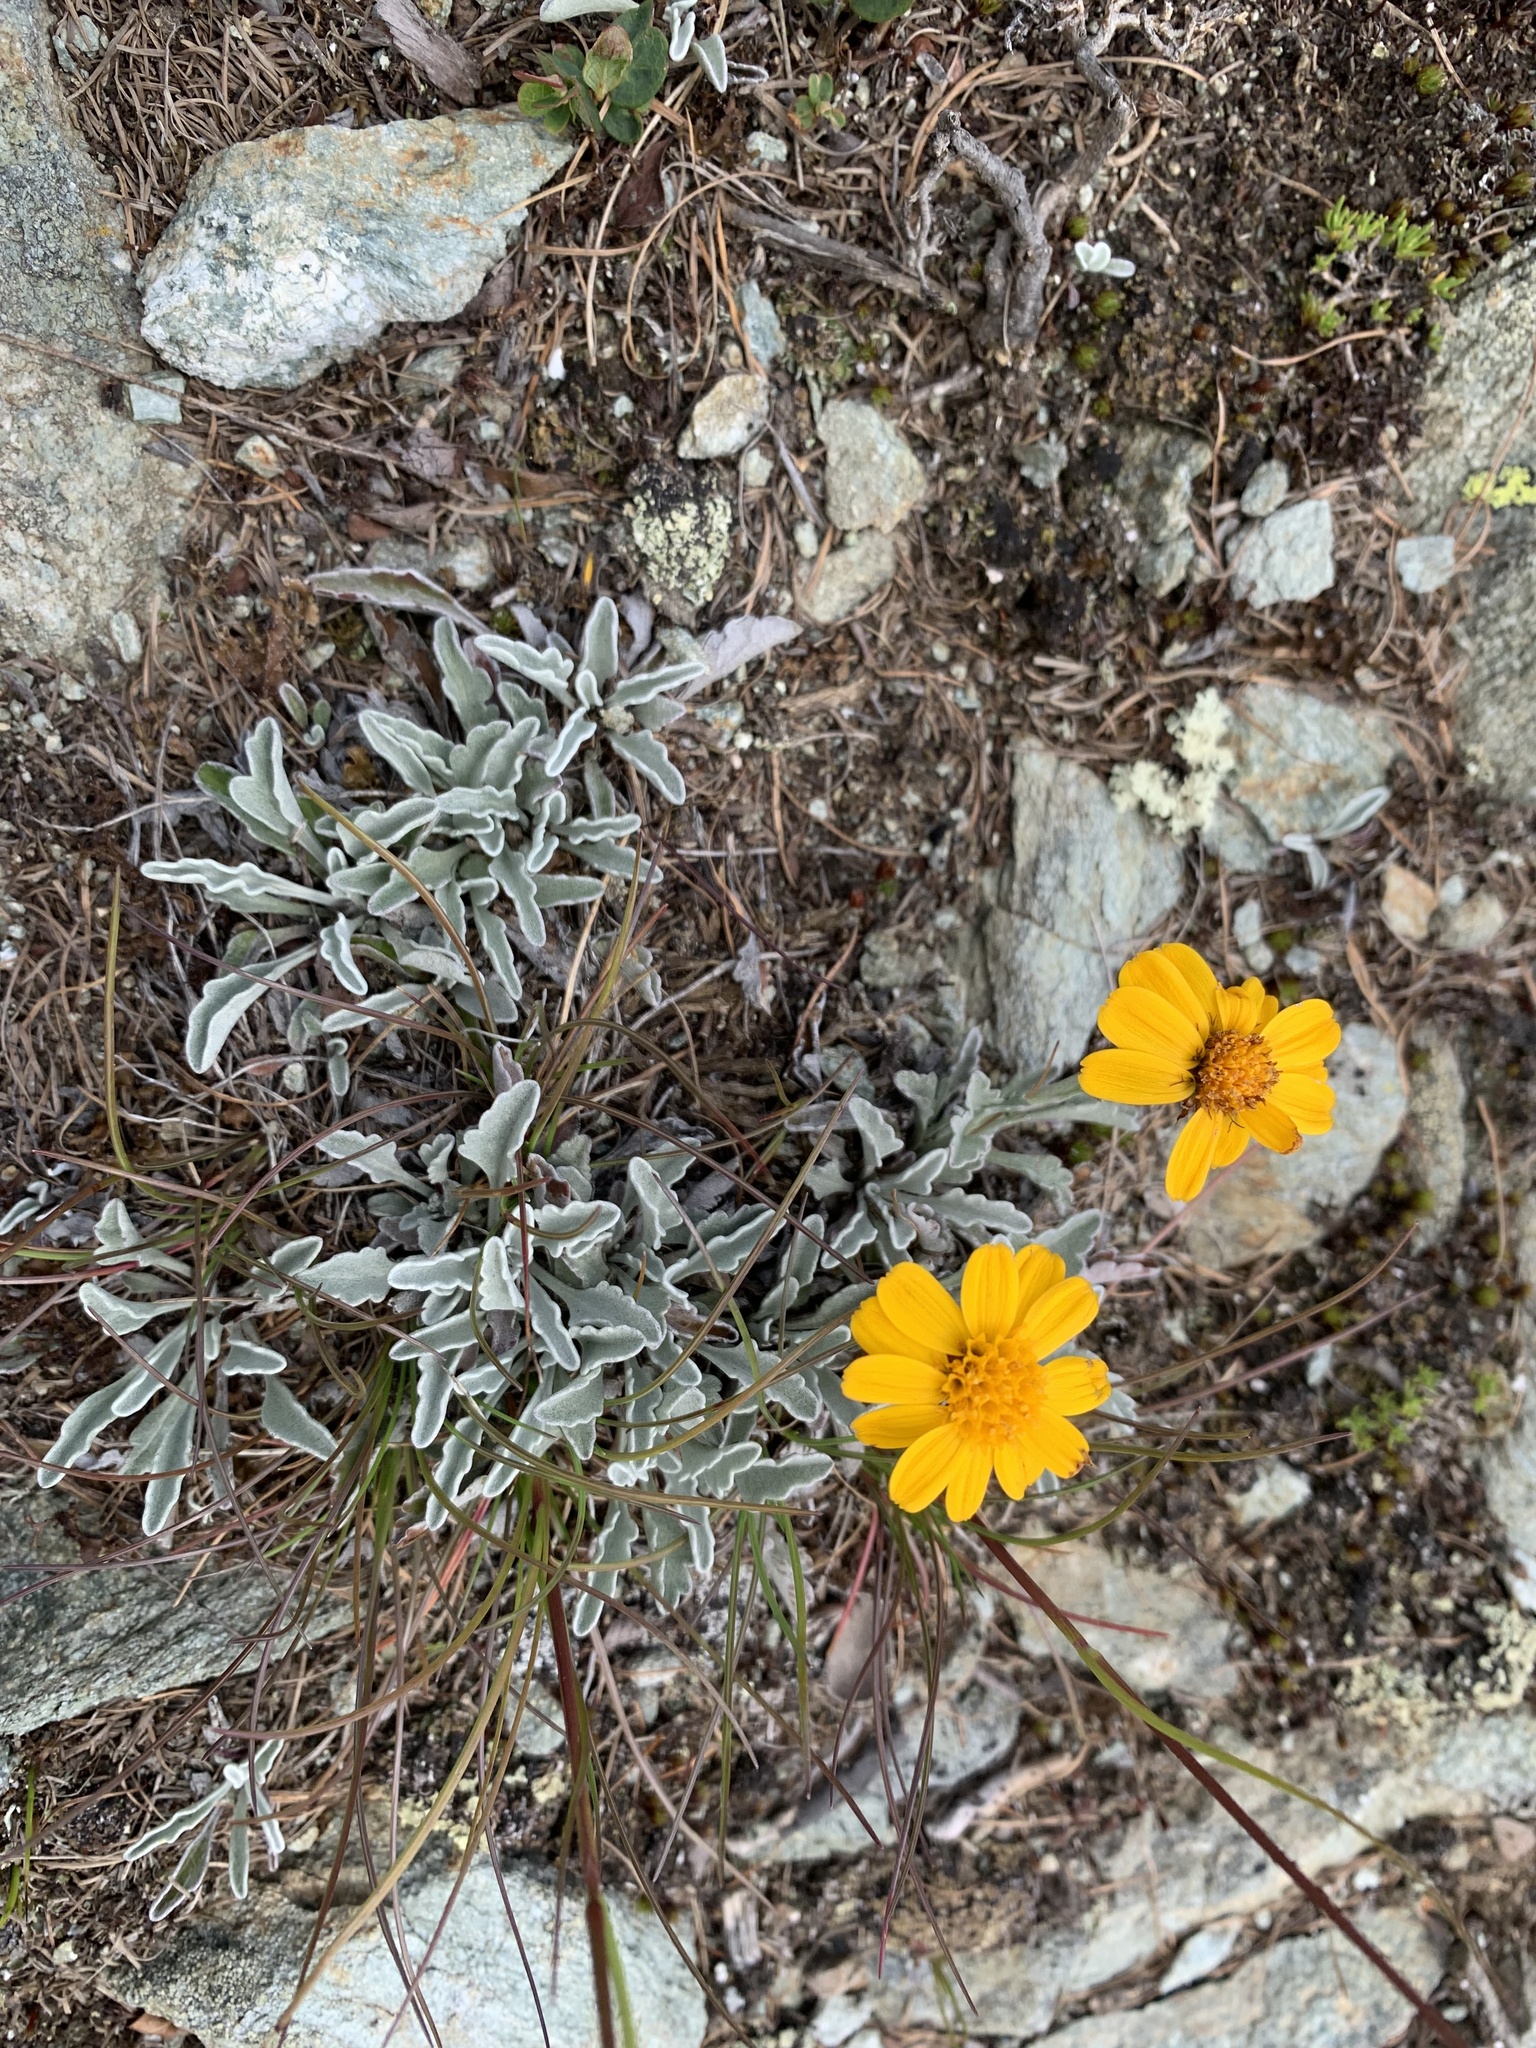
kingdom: Plantae
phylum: Tracheophyta
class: Magnoliopsida
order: Asterales
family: Asteraceae
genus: Jacobaea
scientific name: Jacobaea uniflora
